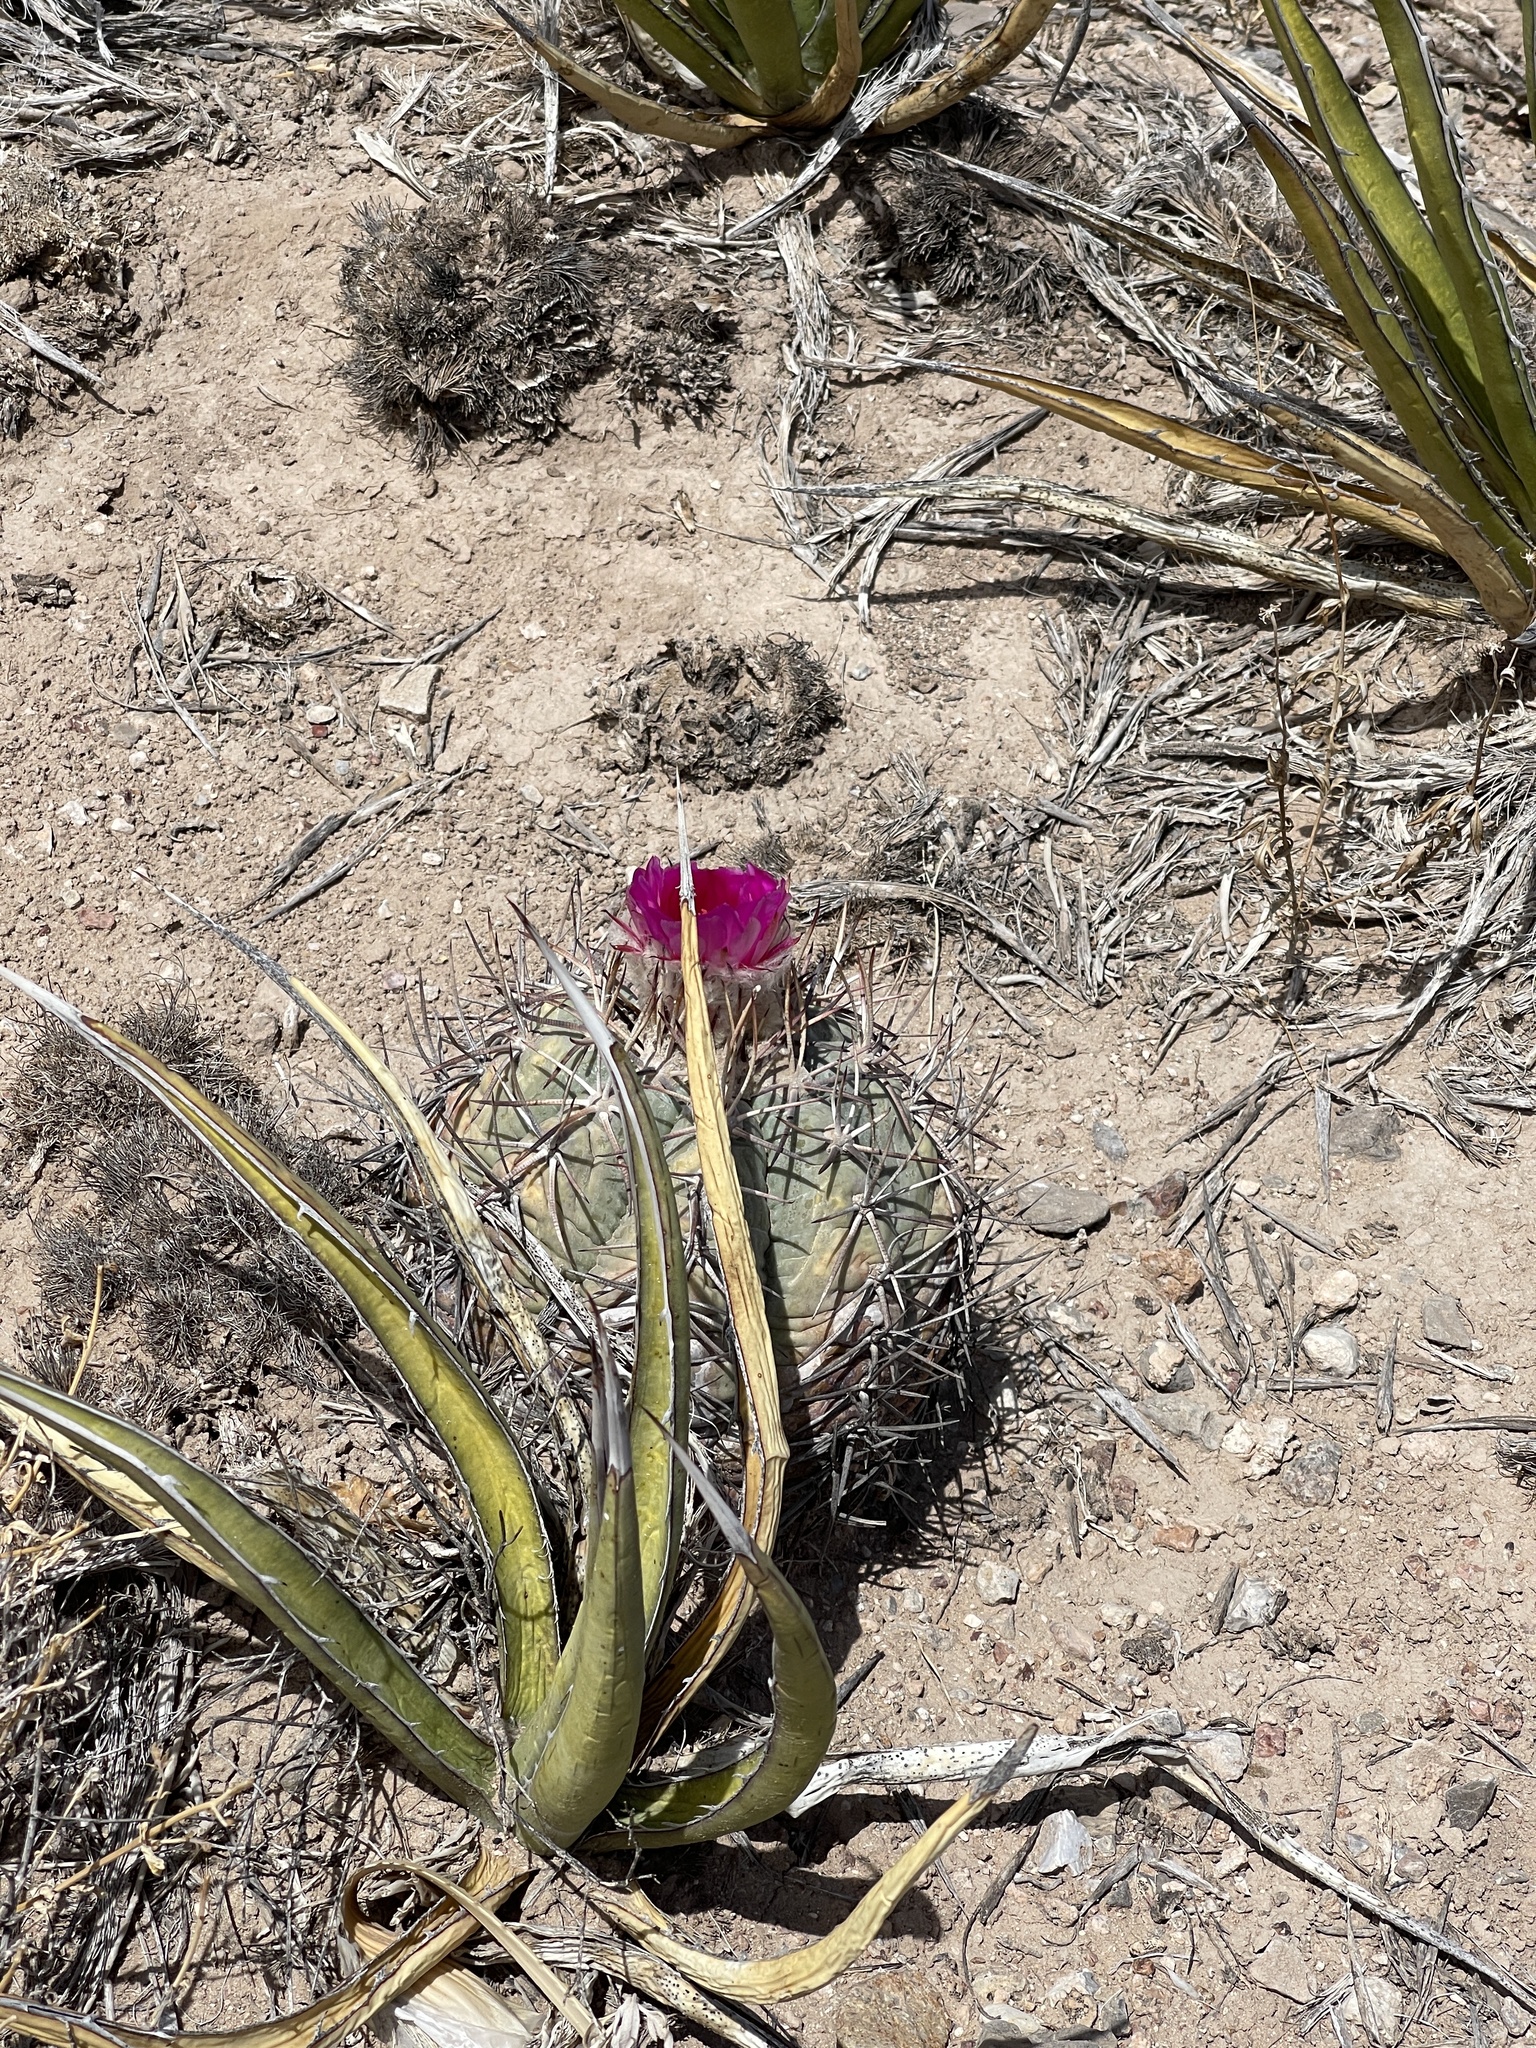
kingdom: Plantae
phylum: Tracheophyta
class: Magnoliopsida
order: Caryophyllales
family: Cactaceae
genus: Echinocactus
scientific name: Echinocactus horizonthalonius
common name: Devilshead
